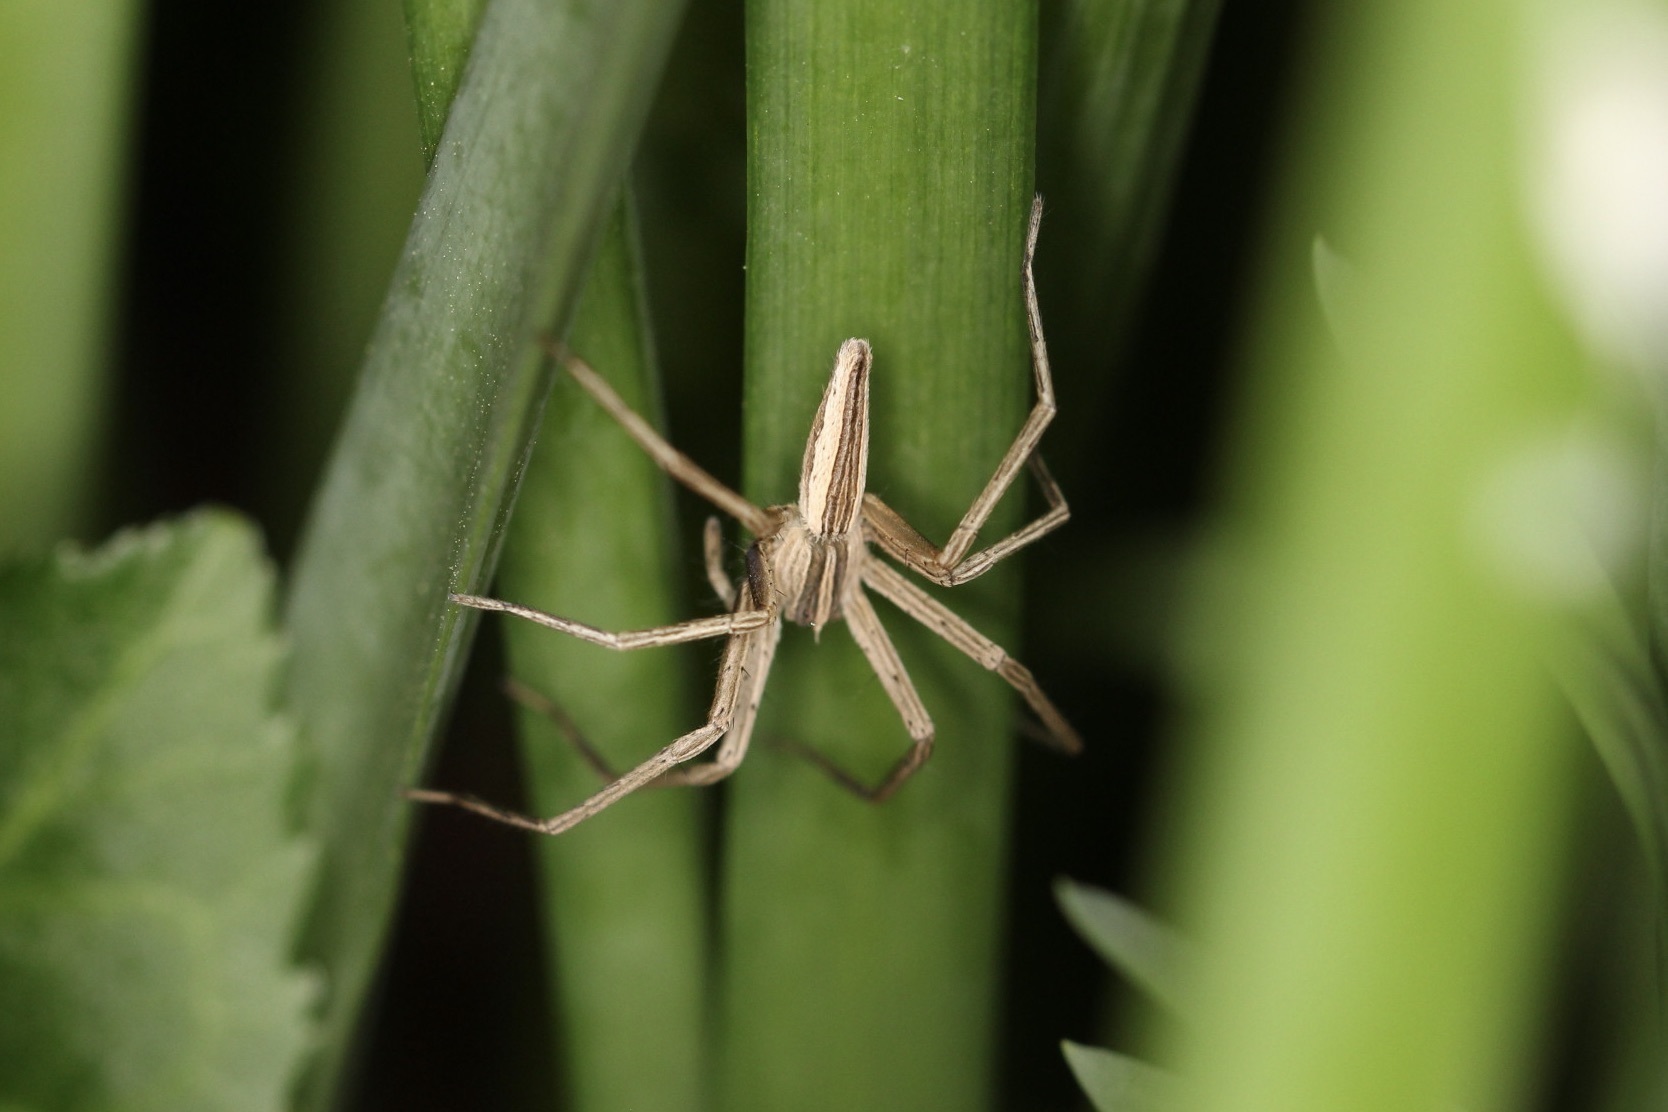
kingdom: Animalia
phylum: Arthropoda
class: Arachnida
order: Araneae
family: Pisauridae
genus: Pisaurina
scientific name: Pisaurina dubia
